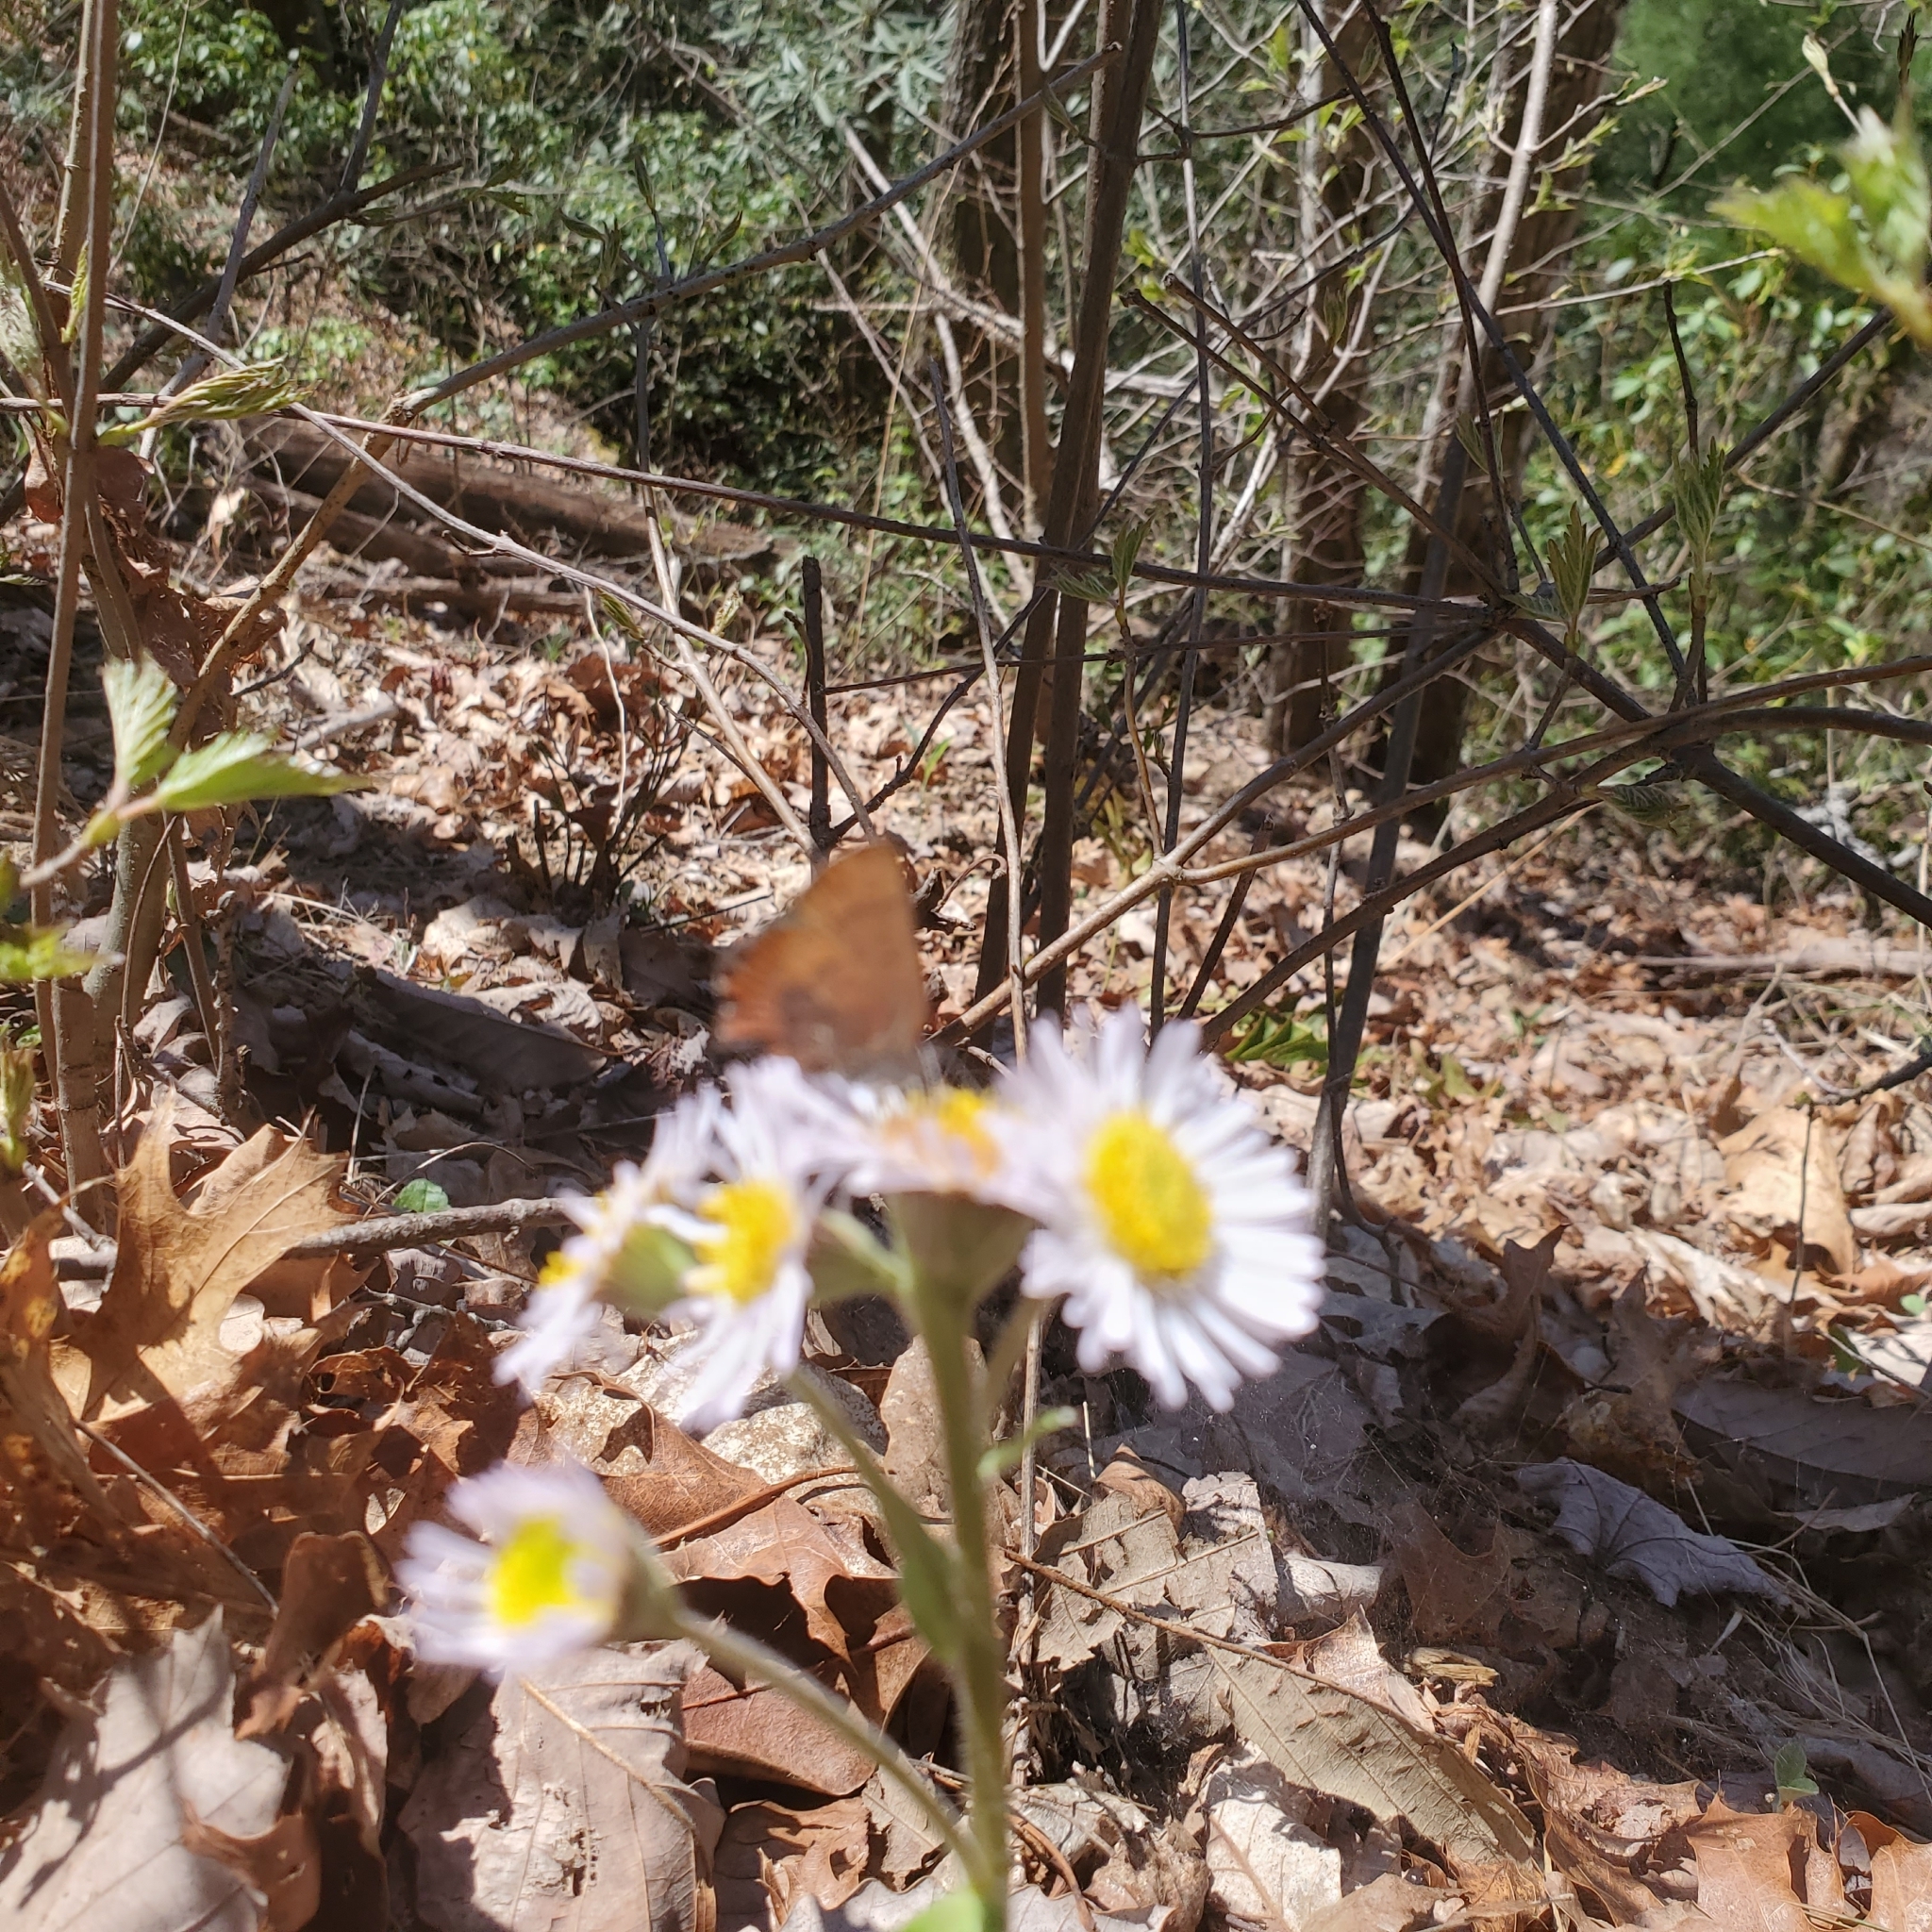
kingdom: Animalia
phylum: Arthropoda
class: Insecta
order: Lepidoptera
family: Lycaenidae
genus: Incisalia
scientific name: Incisalia irioides
